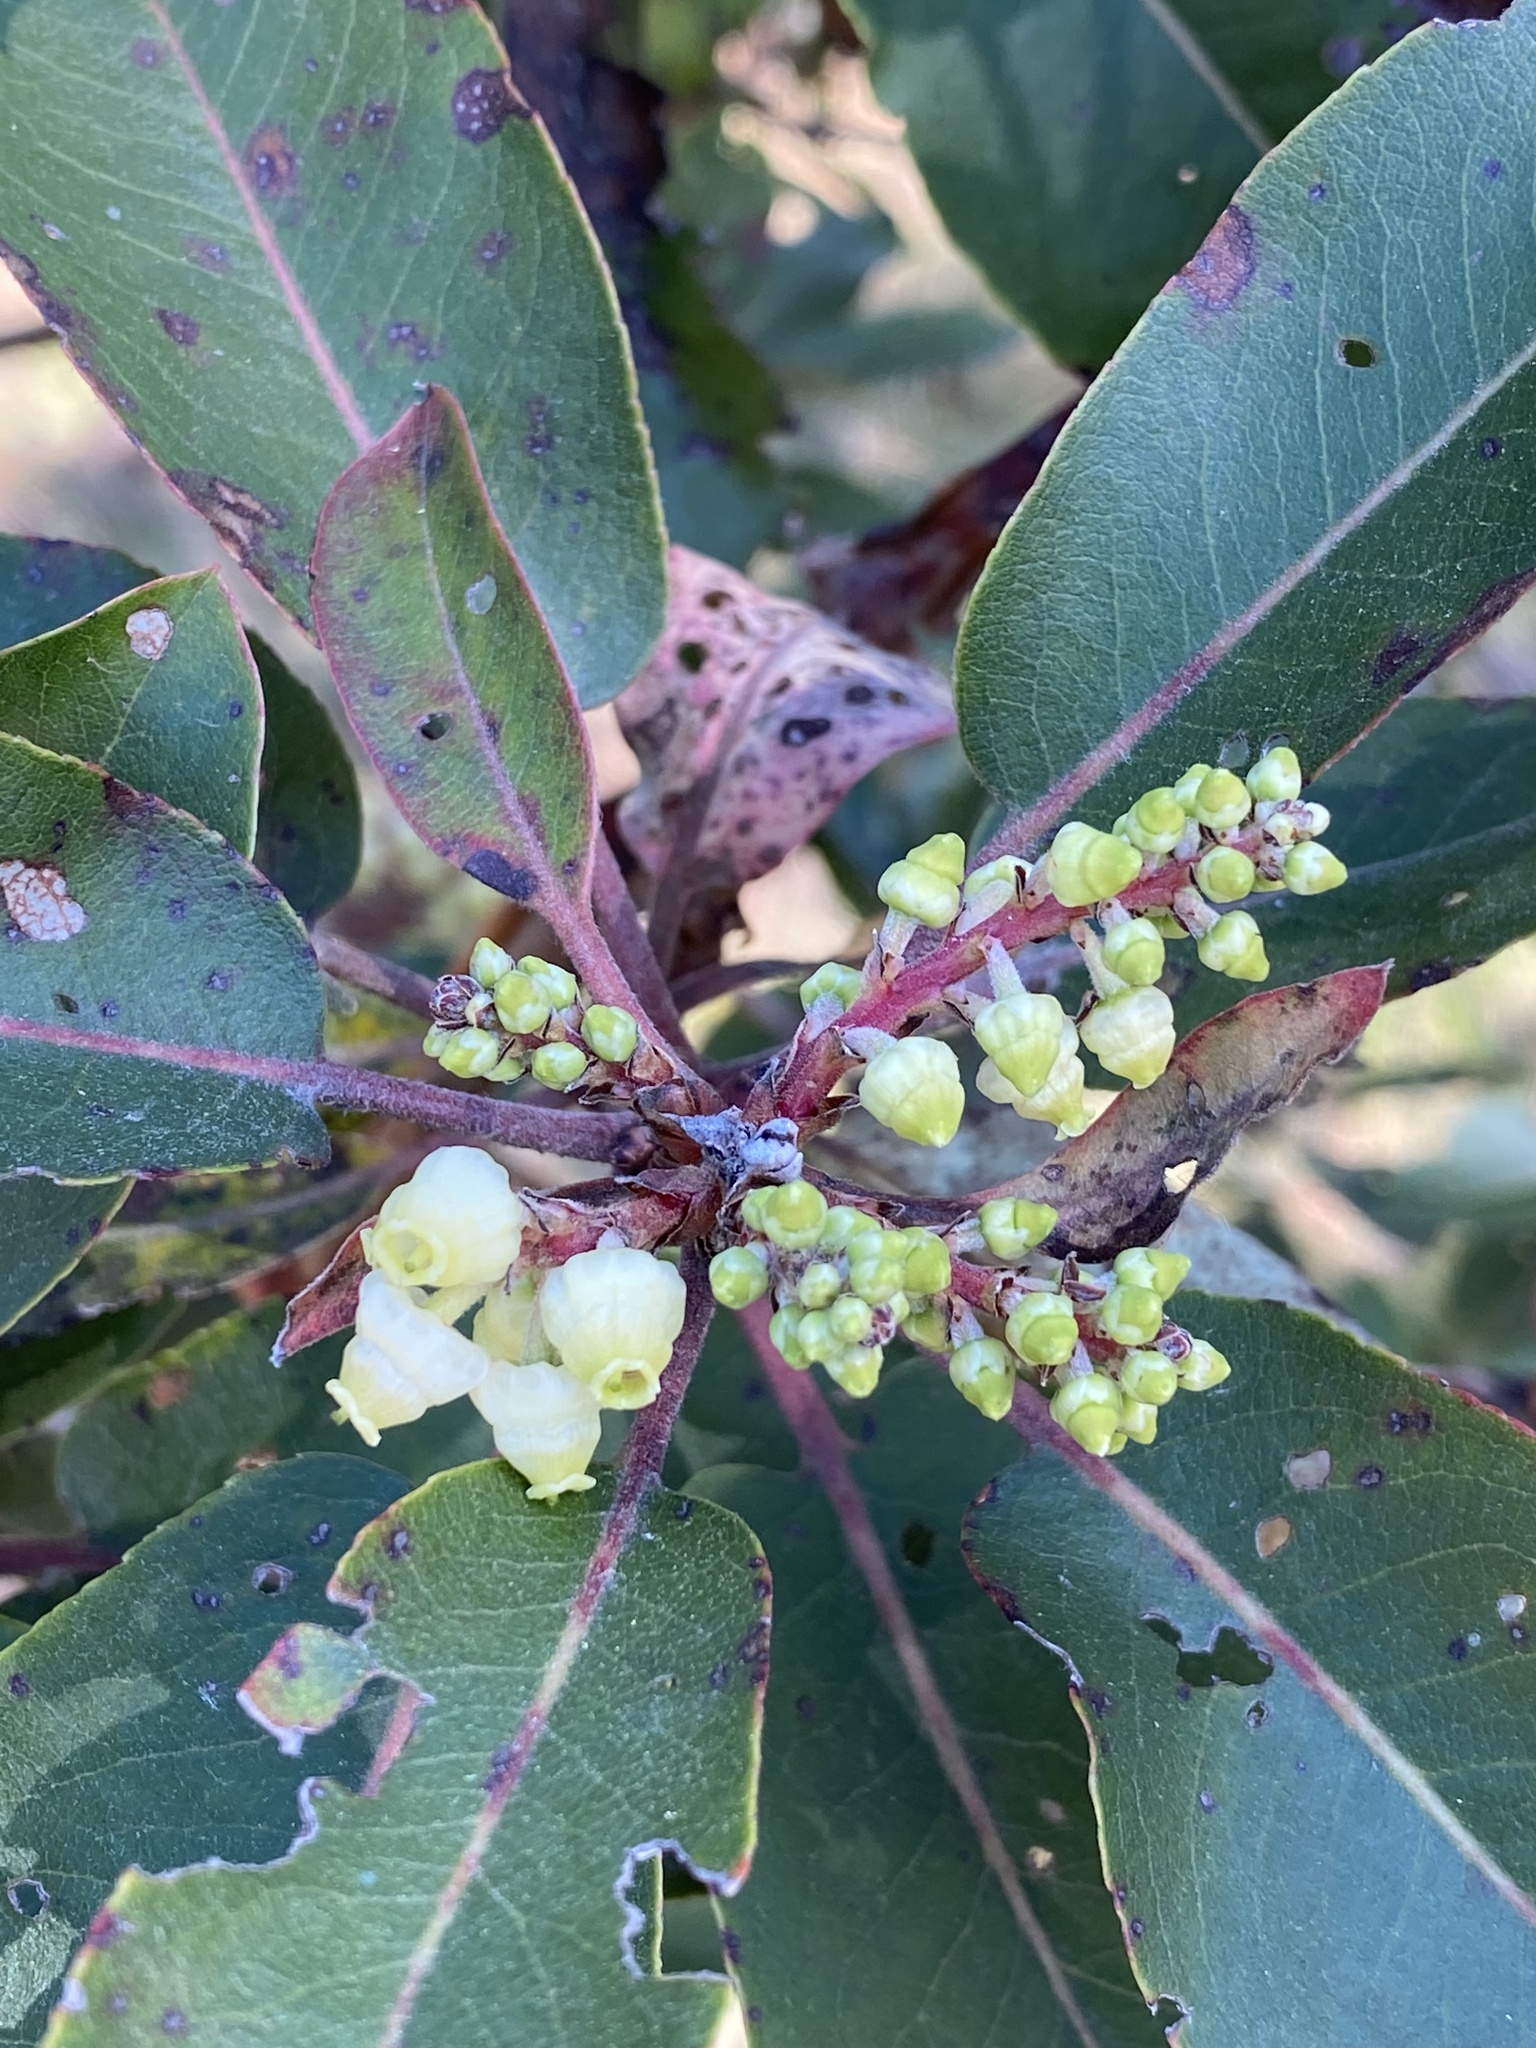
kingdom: Plantae
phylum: Tracheophyta
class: Magnoliopsida
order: Ericales
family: Ericaceae
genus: Arbutus
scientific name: Arbutus xalapensis
